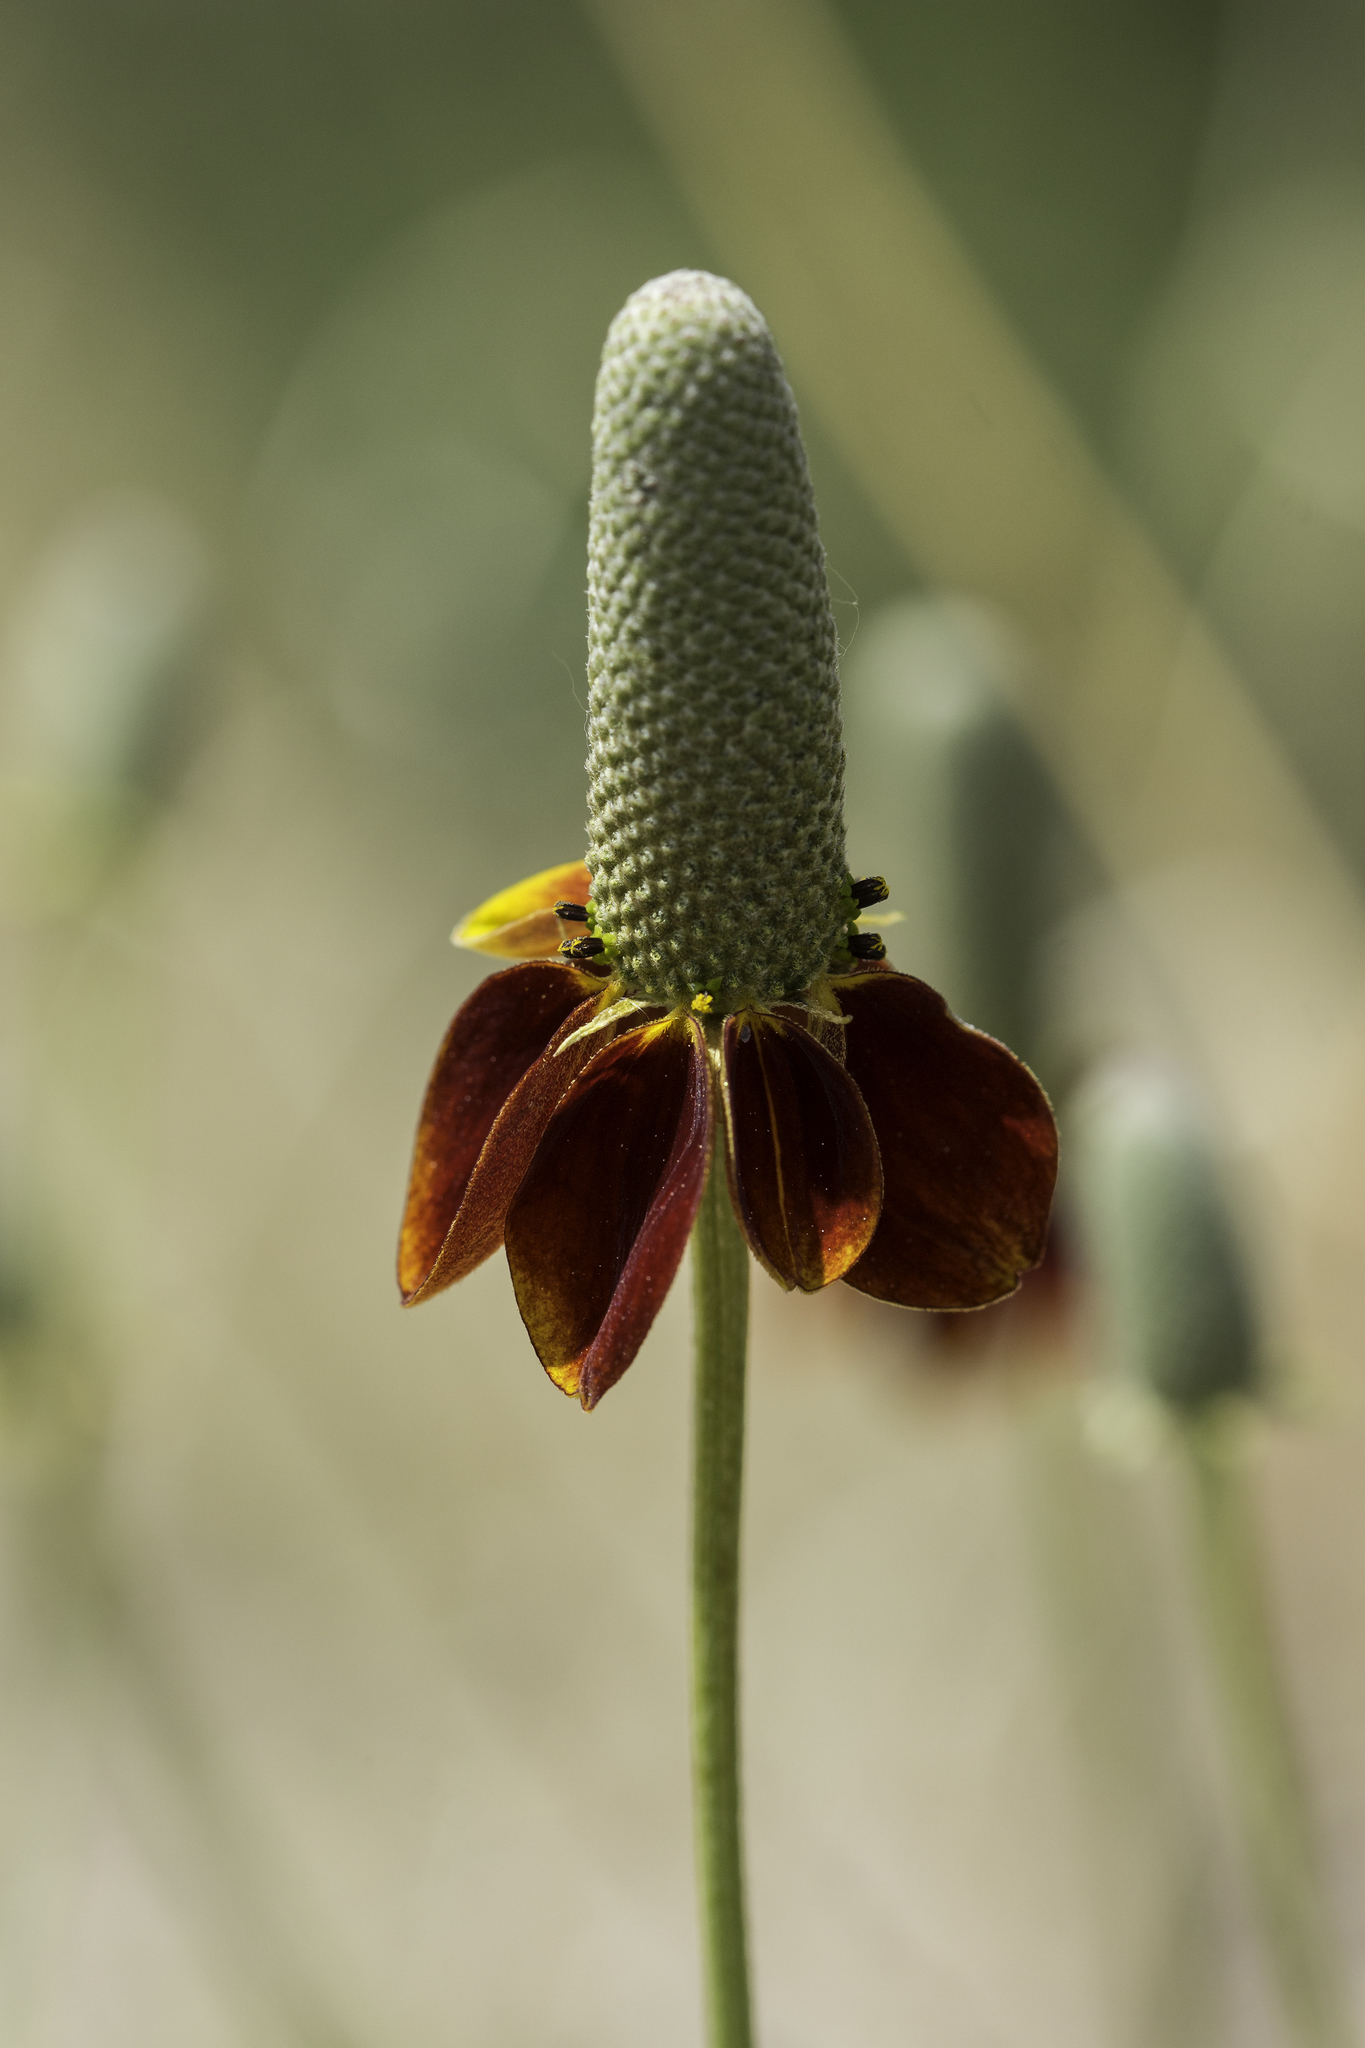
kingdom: Plantae
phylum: Tracheophyta
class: Magnoliopsida
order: Asterales
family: Asteraceae
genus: Ratibida
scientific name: Ratibida columnifera
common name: Prairie coneflower
